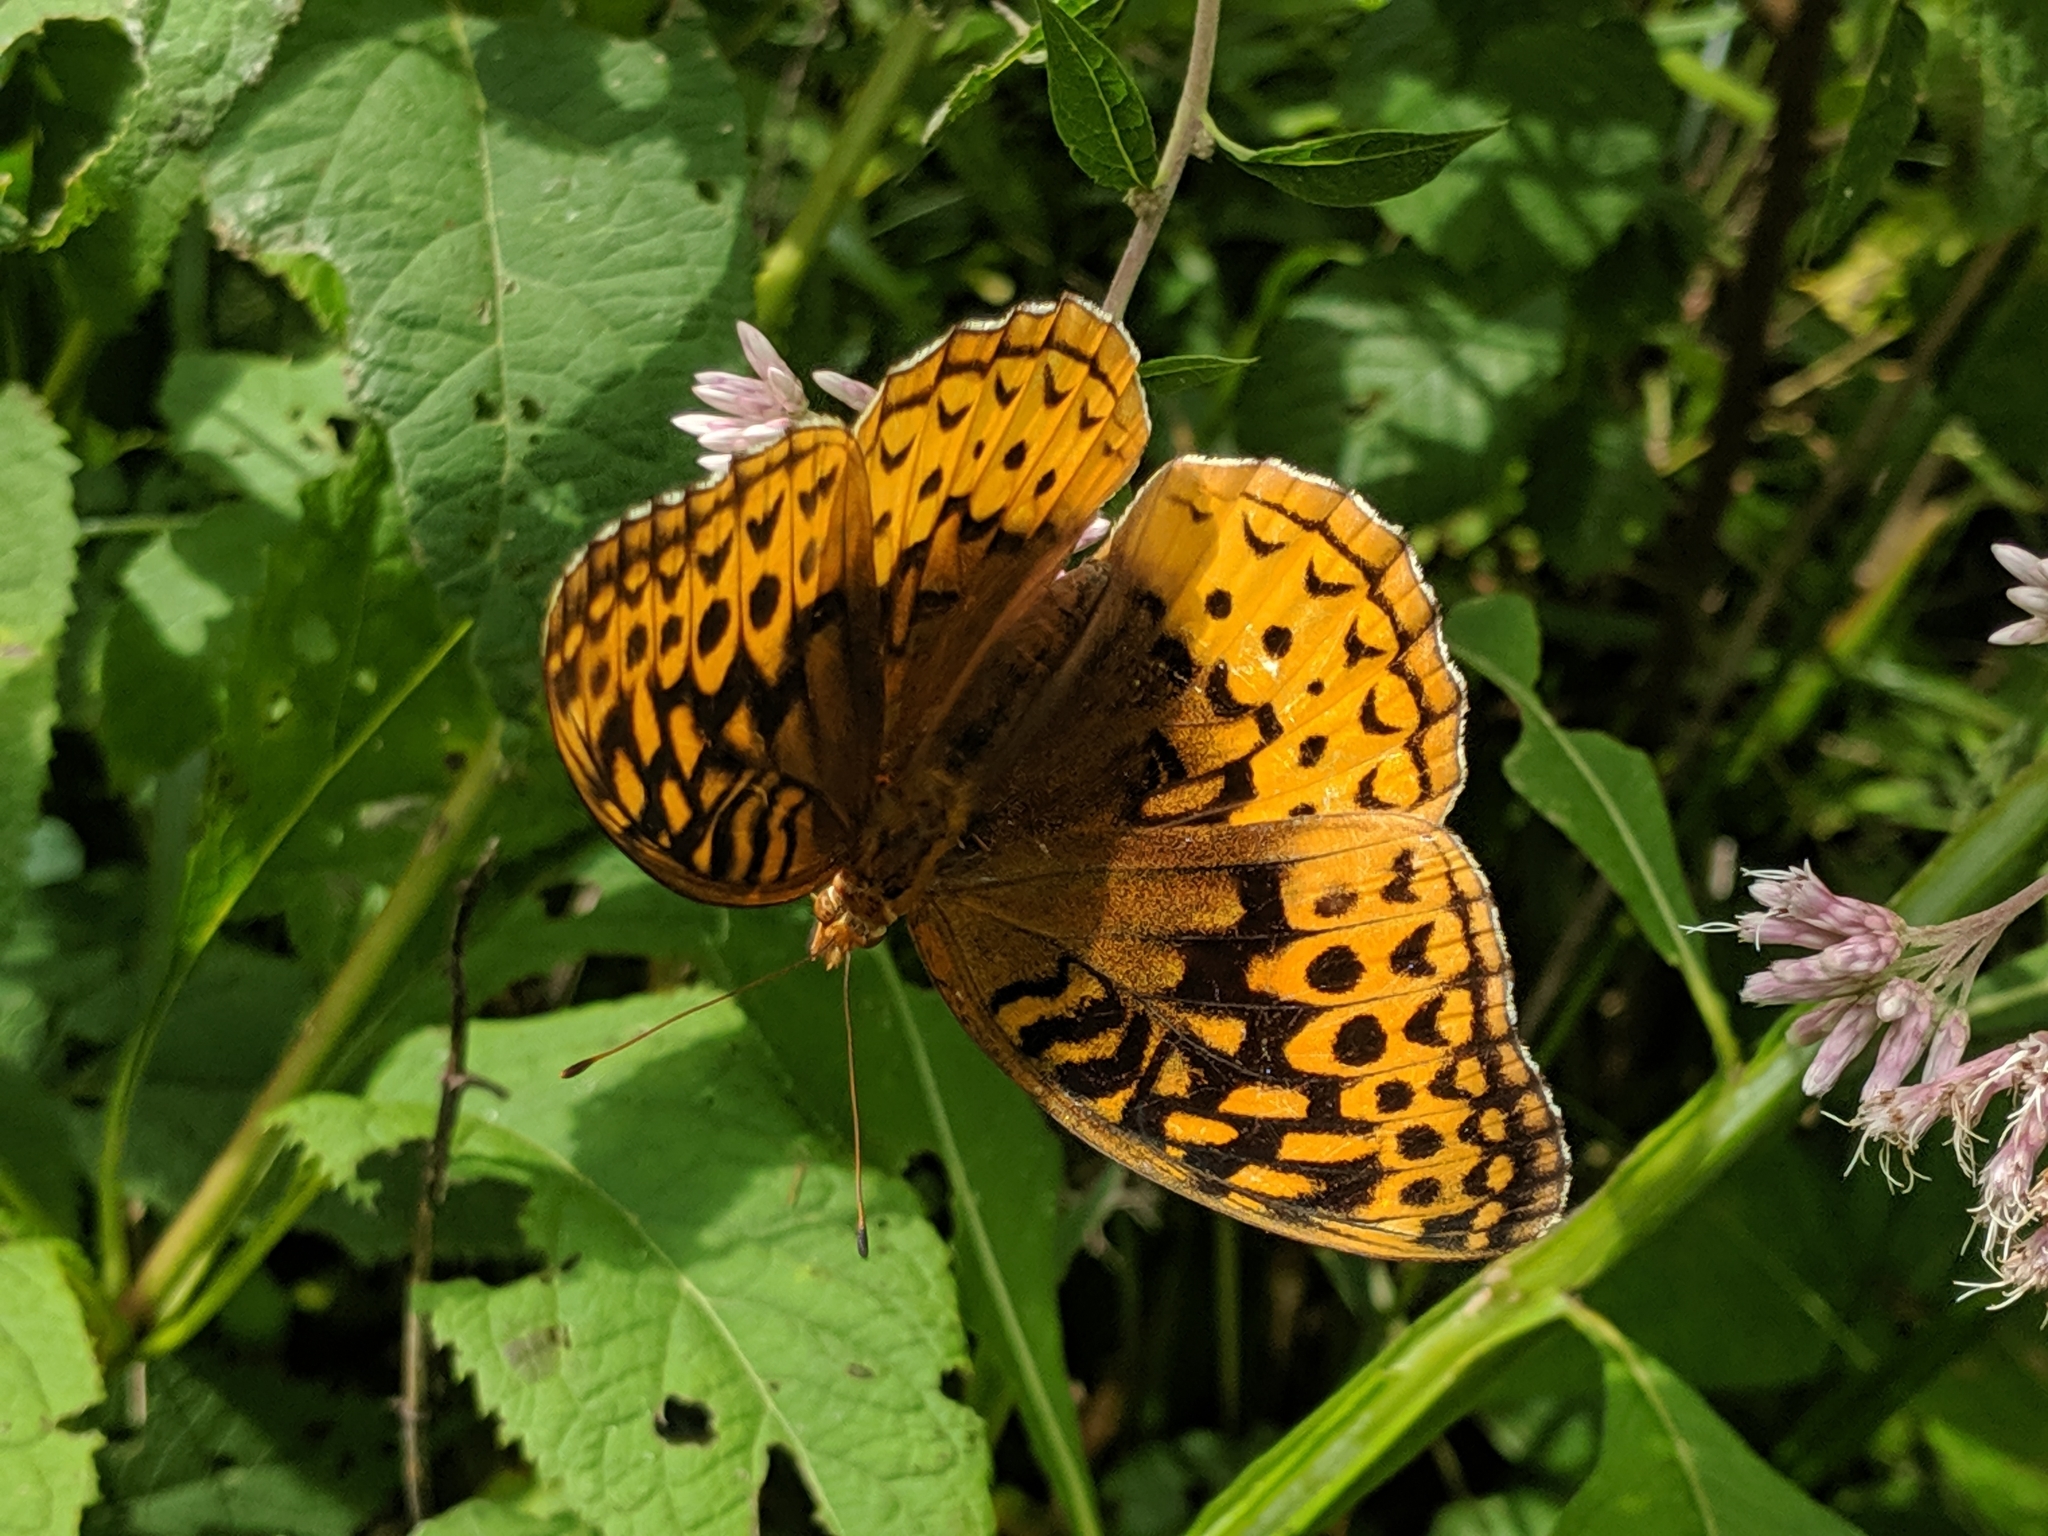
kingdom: Animalia
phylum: Arthropoda
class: Insecta
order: Lepidoptera
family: Nymphalidae
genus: Speyeria
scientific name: Speyeria cybele
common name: Great spangled fritillary
